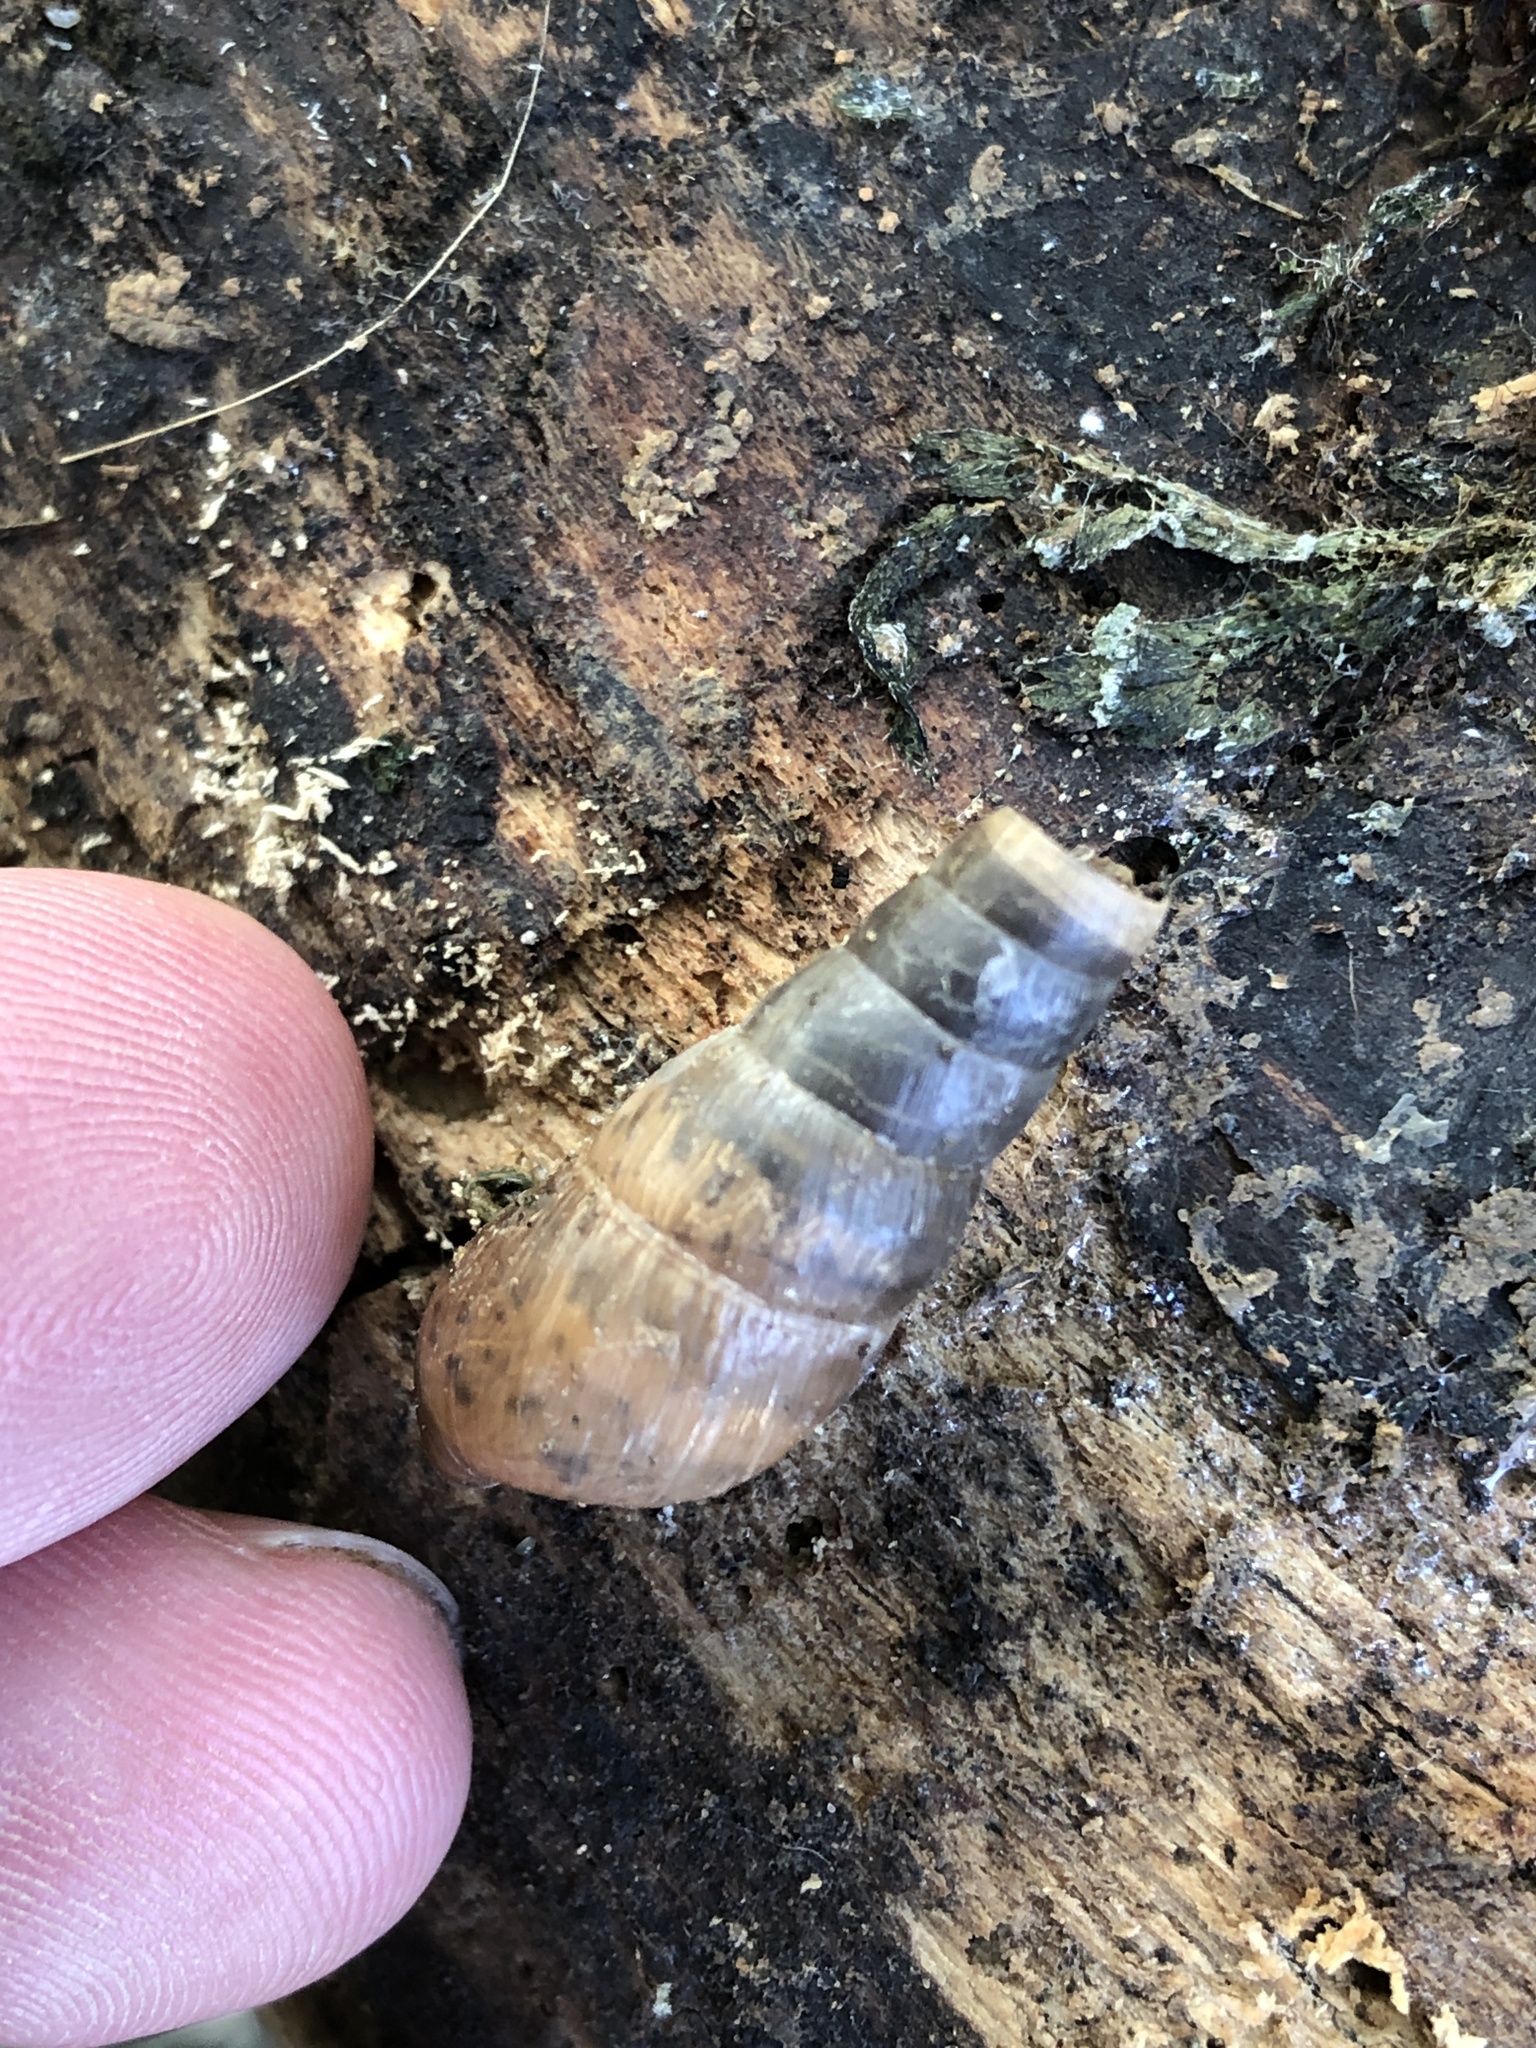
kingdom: Animalia
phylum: Mollusca
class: Gastropoda
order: Stylommatophora
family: Achatinidae
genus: Rumina
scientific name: Rumina decollata
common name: Decollate snail
